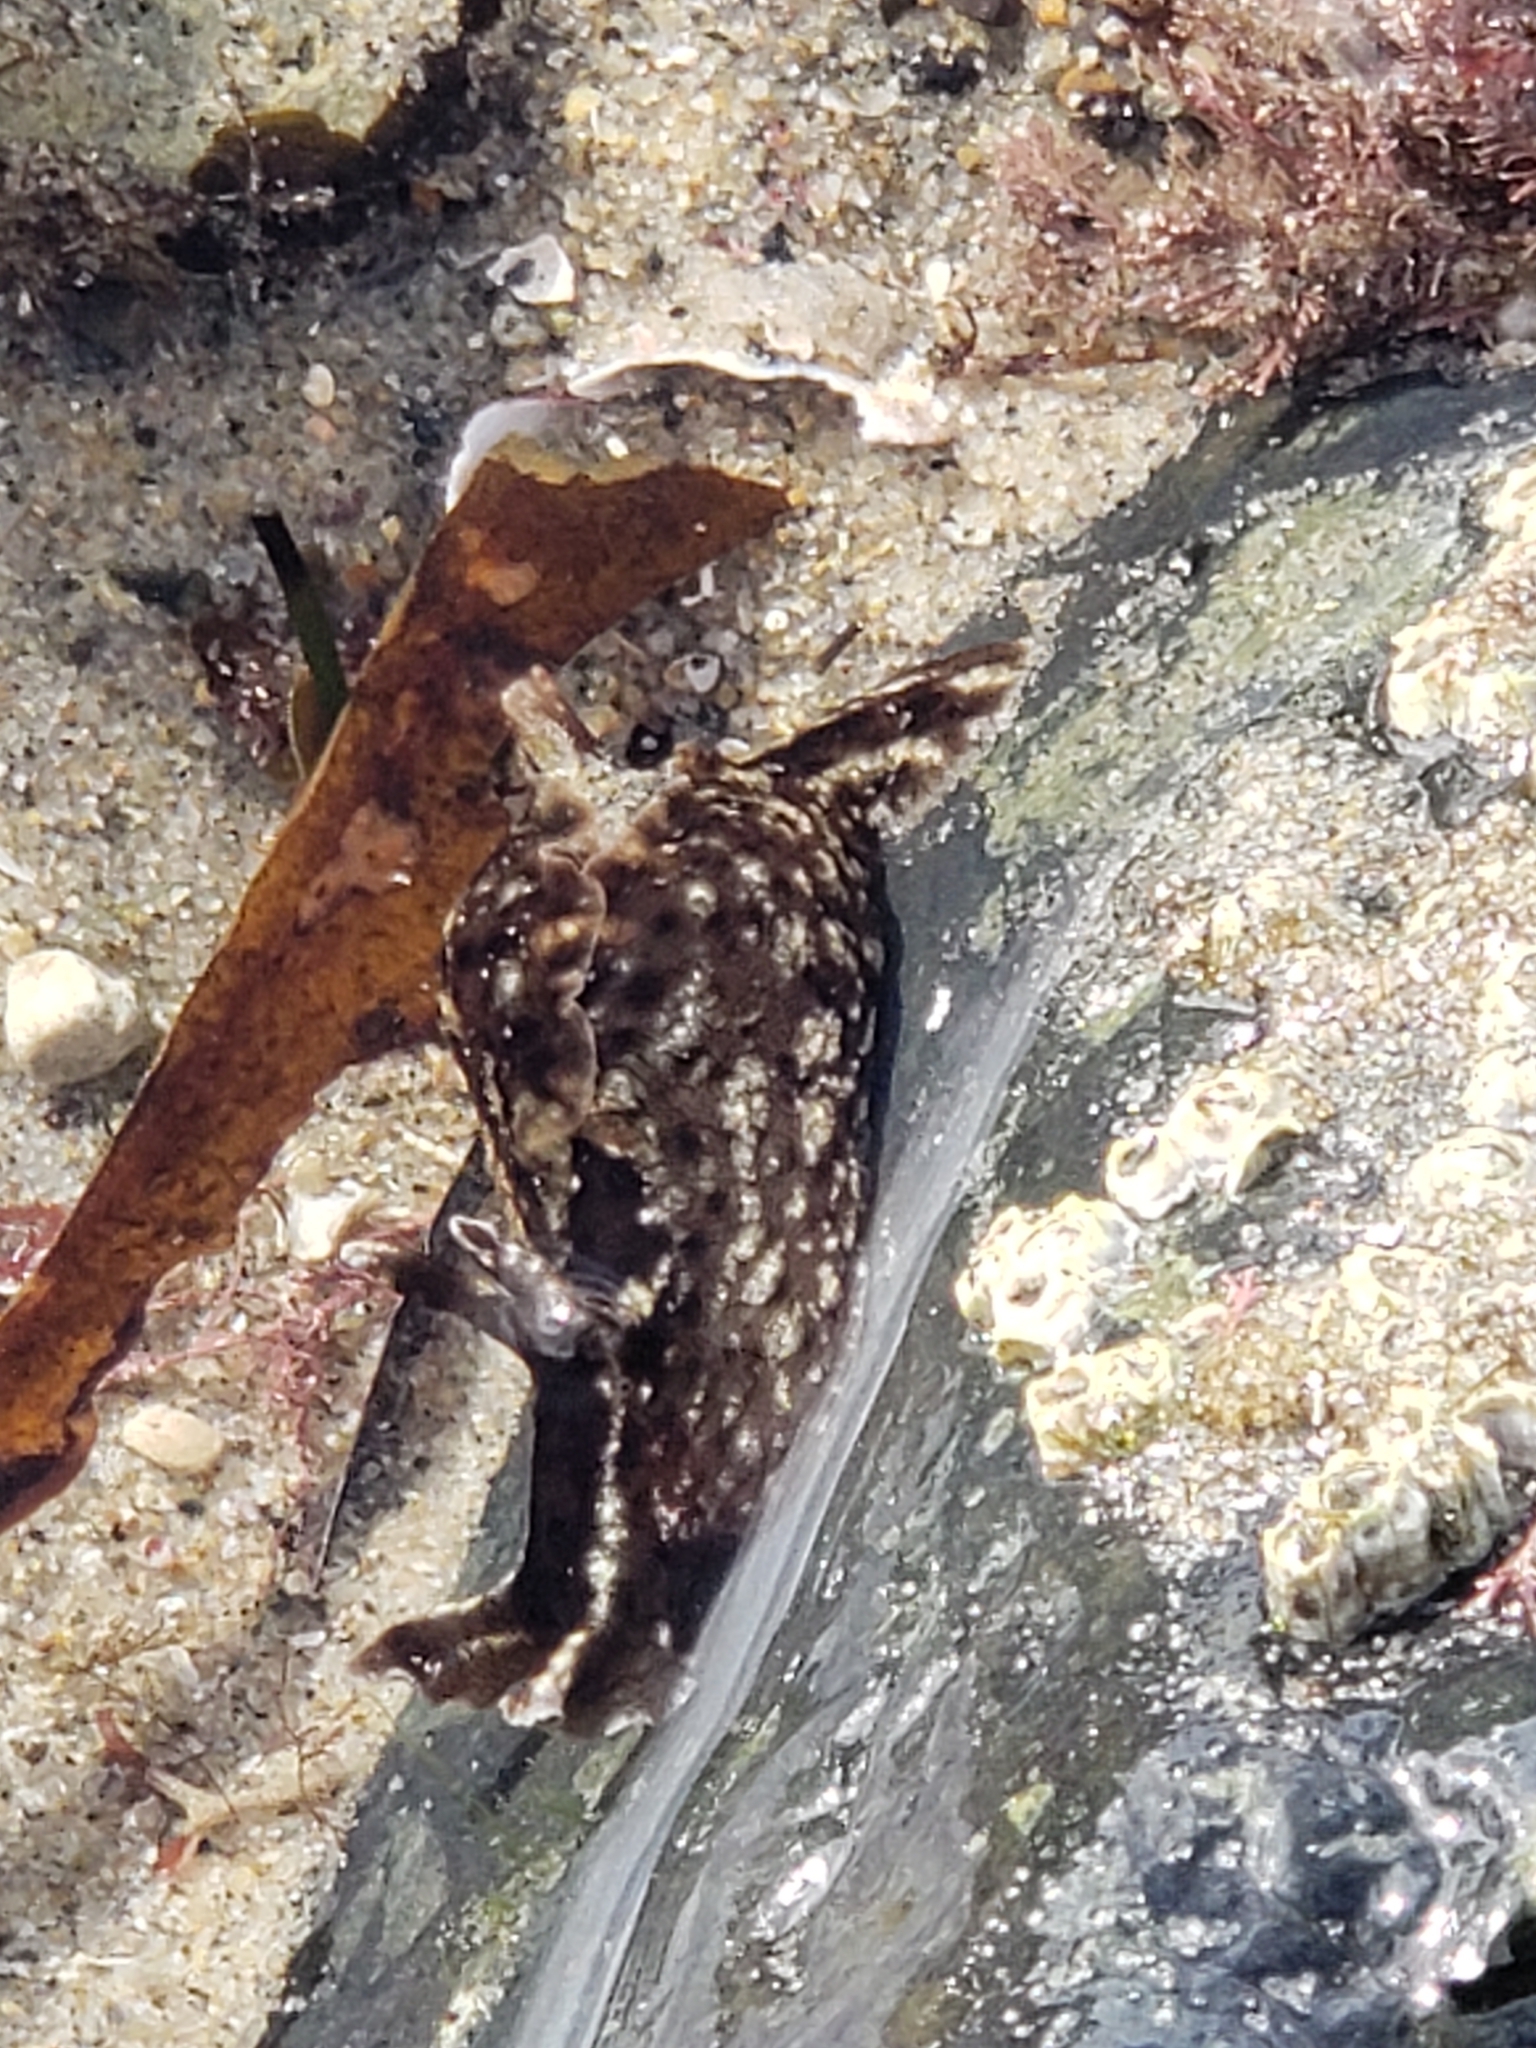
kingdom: Animalia
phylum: Mollusca
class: Gastropoda
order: Aplysiida
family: Aplysiidae
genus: Aplysia
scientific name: Aplysia californica
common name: California seahare
